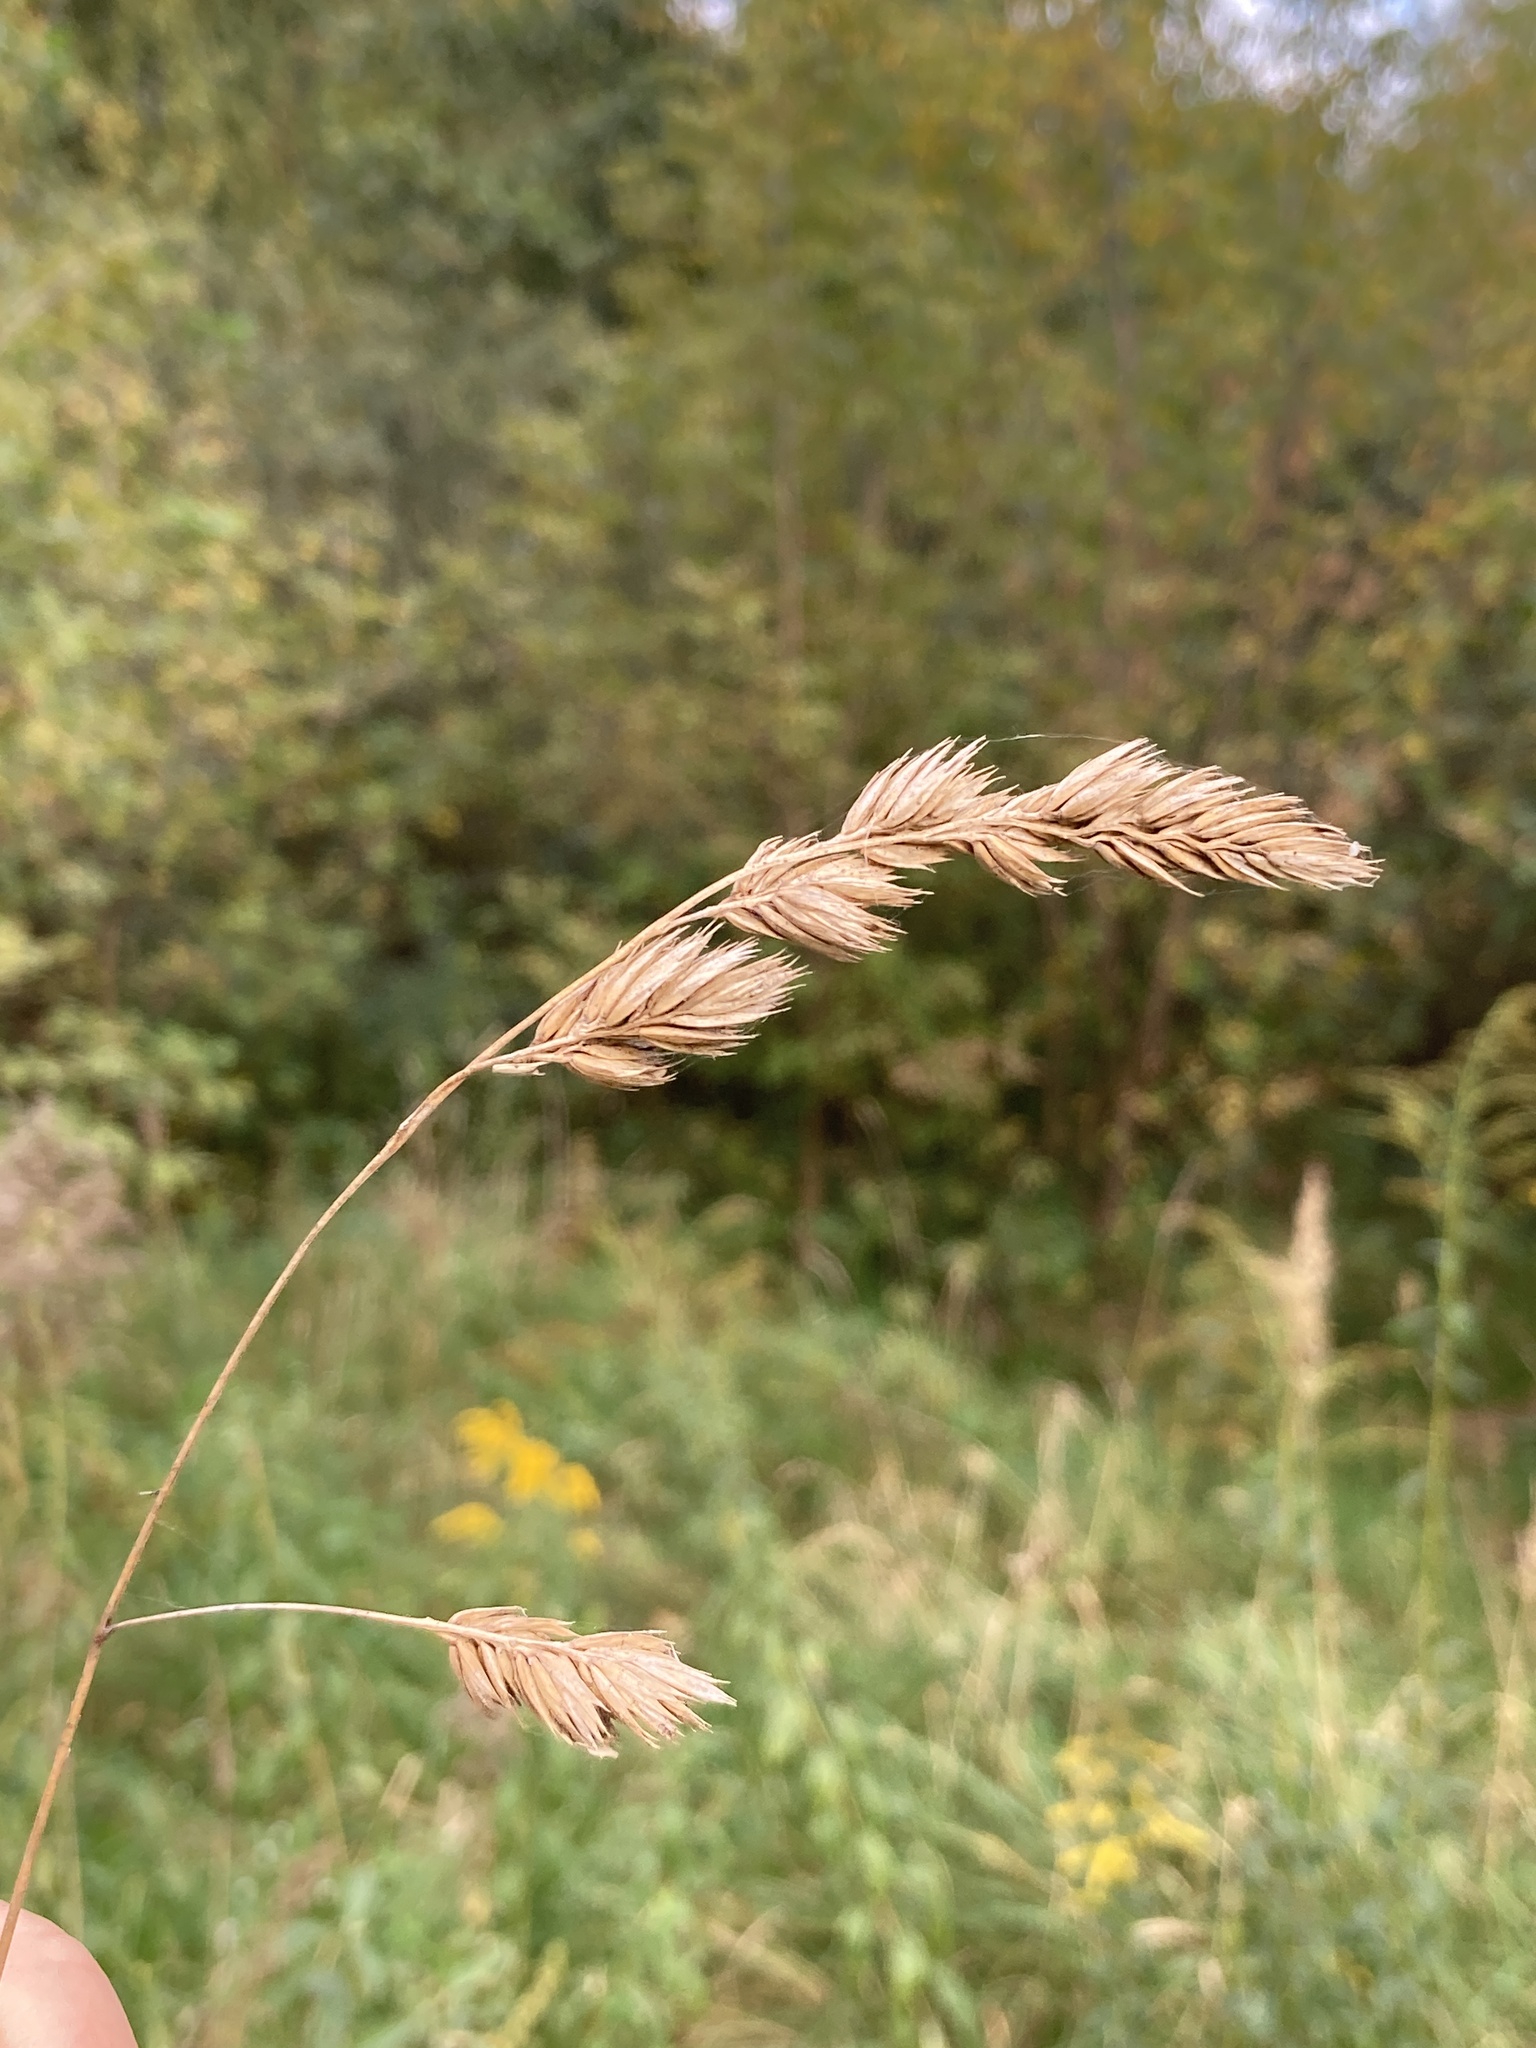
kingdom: Plantae
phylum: Tracheophyta
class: Liliopsida
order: Poales
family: Poaceae
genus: Dactylis
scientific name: Dactylis glomerata
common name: Orchardgrass
